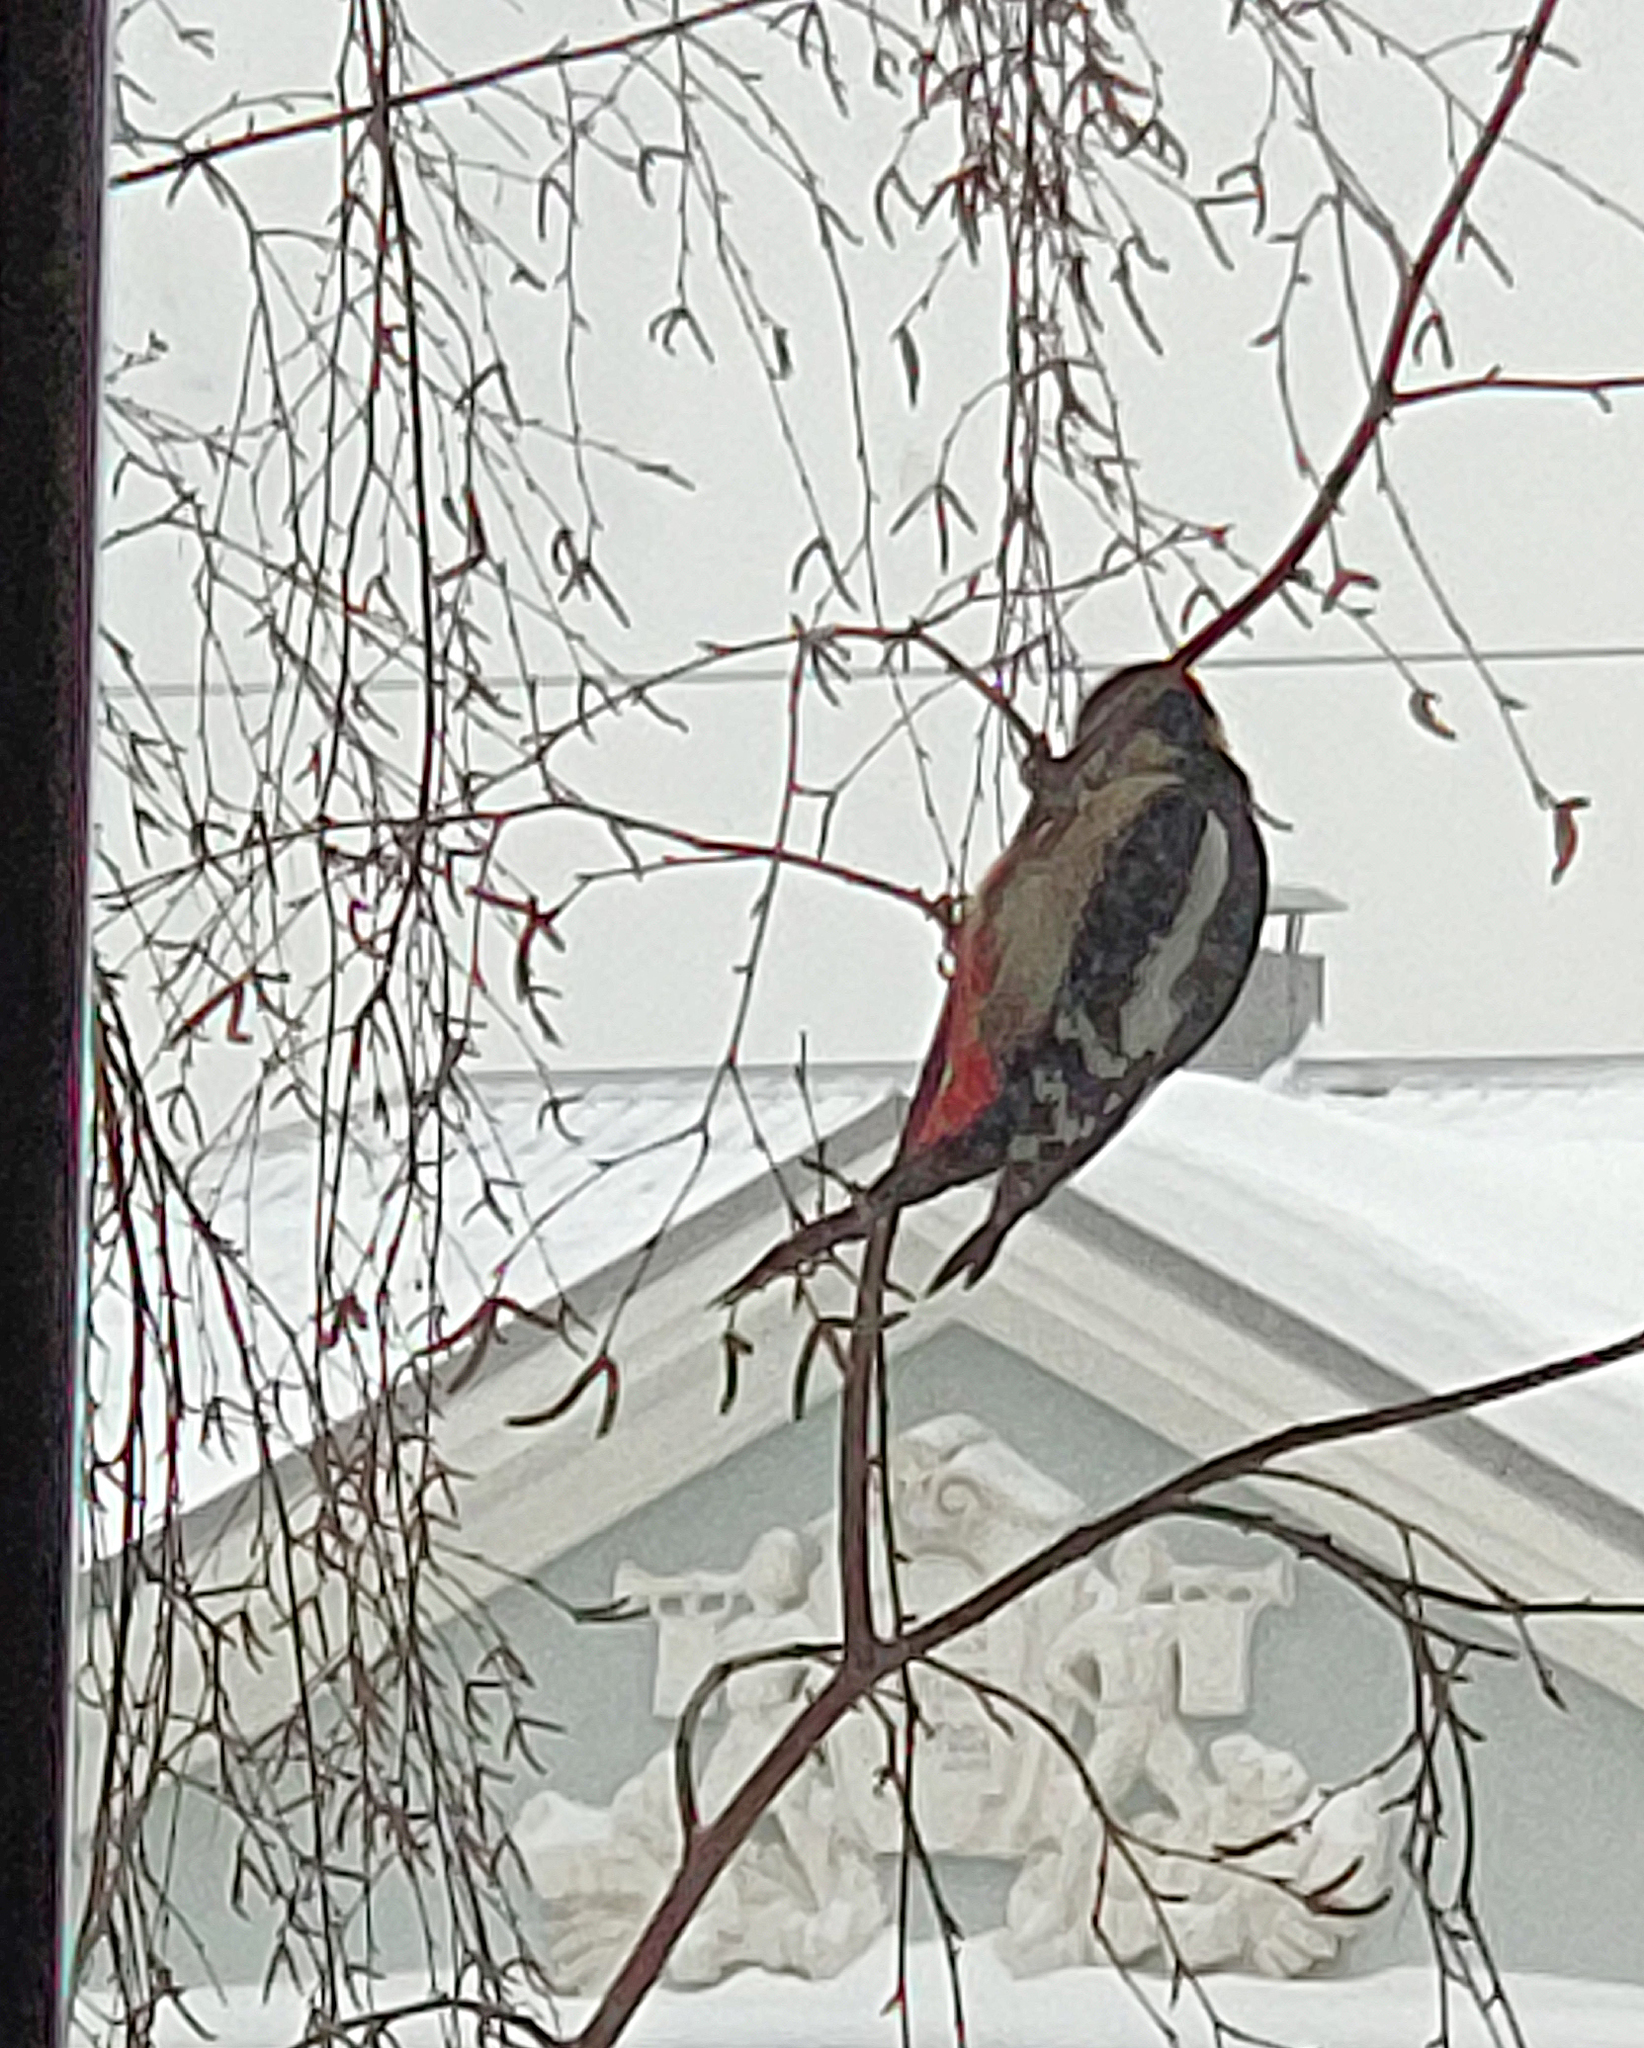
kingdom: Animalia
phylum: Chordata
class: Aves
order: Piciformes
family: Picidae
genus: Dendrocopos
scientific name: Dendrocopos major
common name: Great spotted woodpecker
